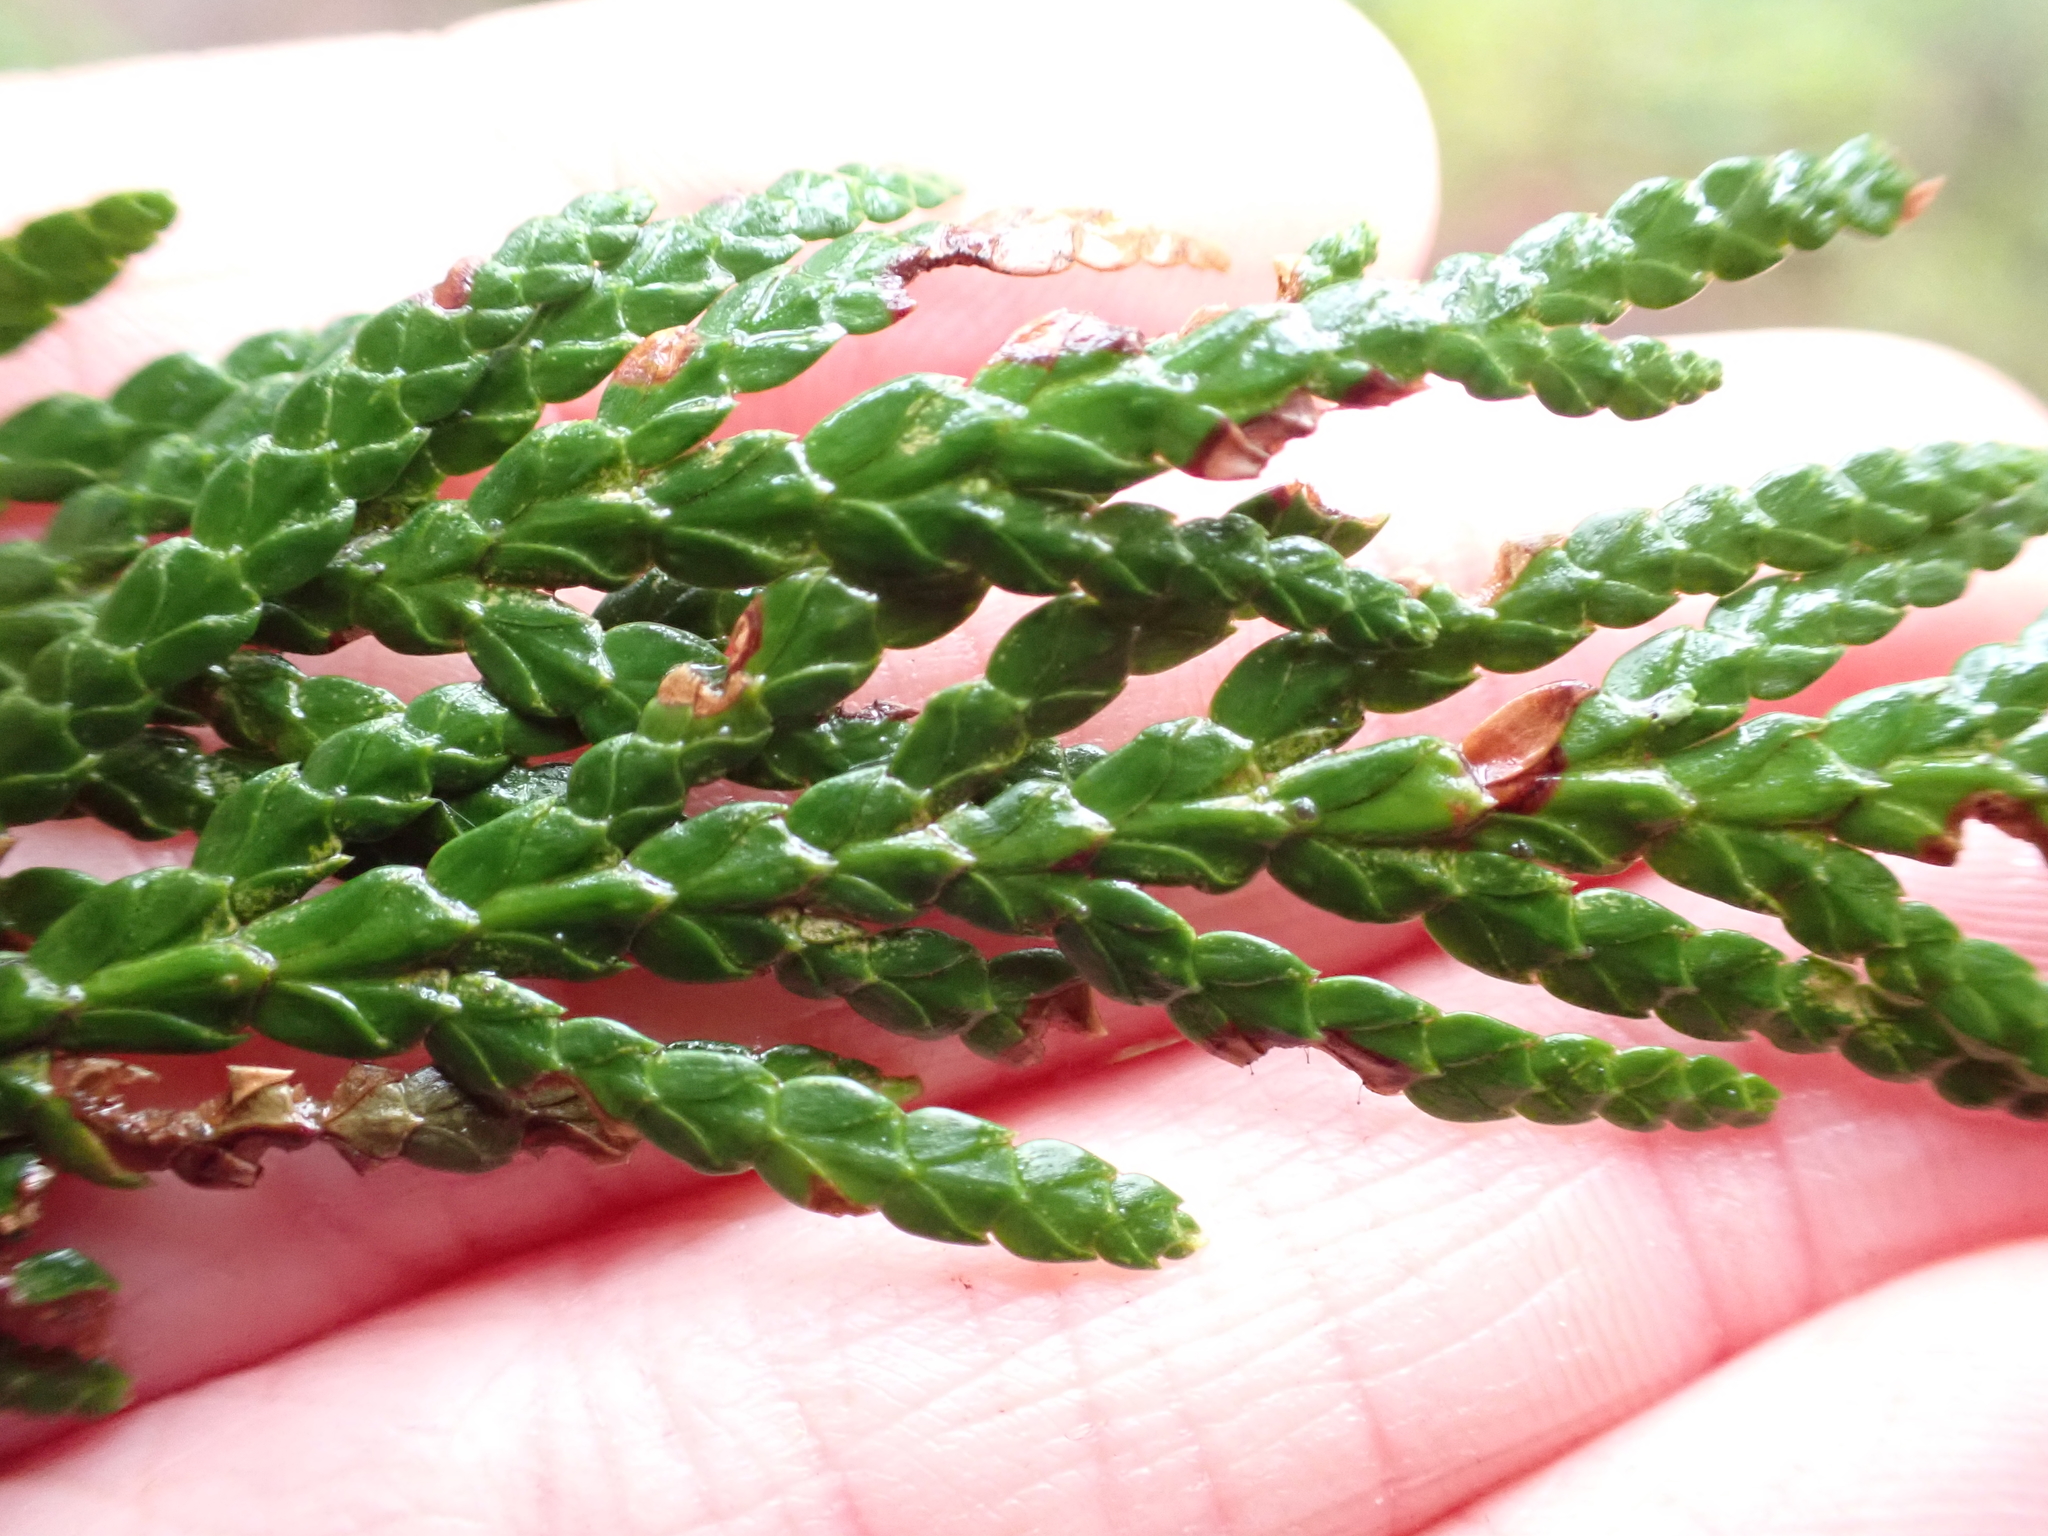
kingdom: Plantae
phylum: Tracheophyta
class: Pinopsida
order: Pinales
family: Cupressaceae
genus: Thuja
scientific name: Thuja plicata
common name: Western red-cedar
